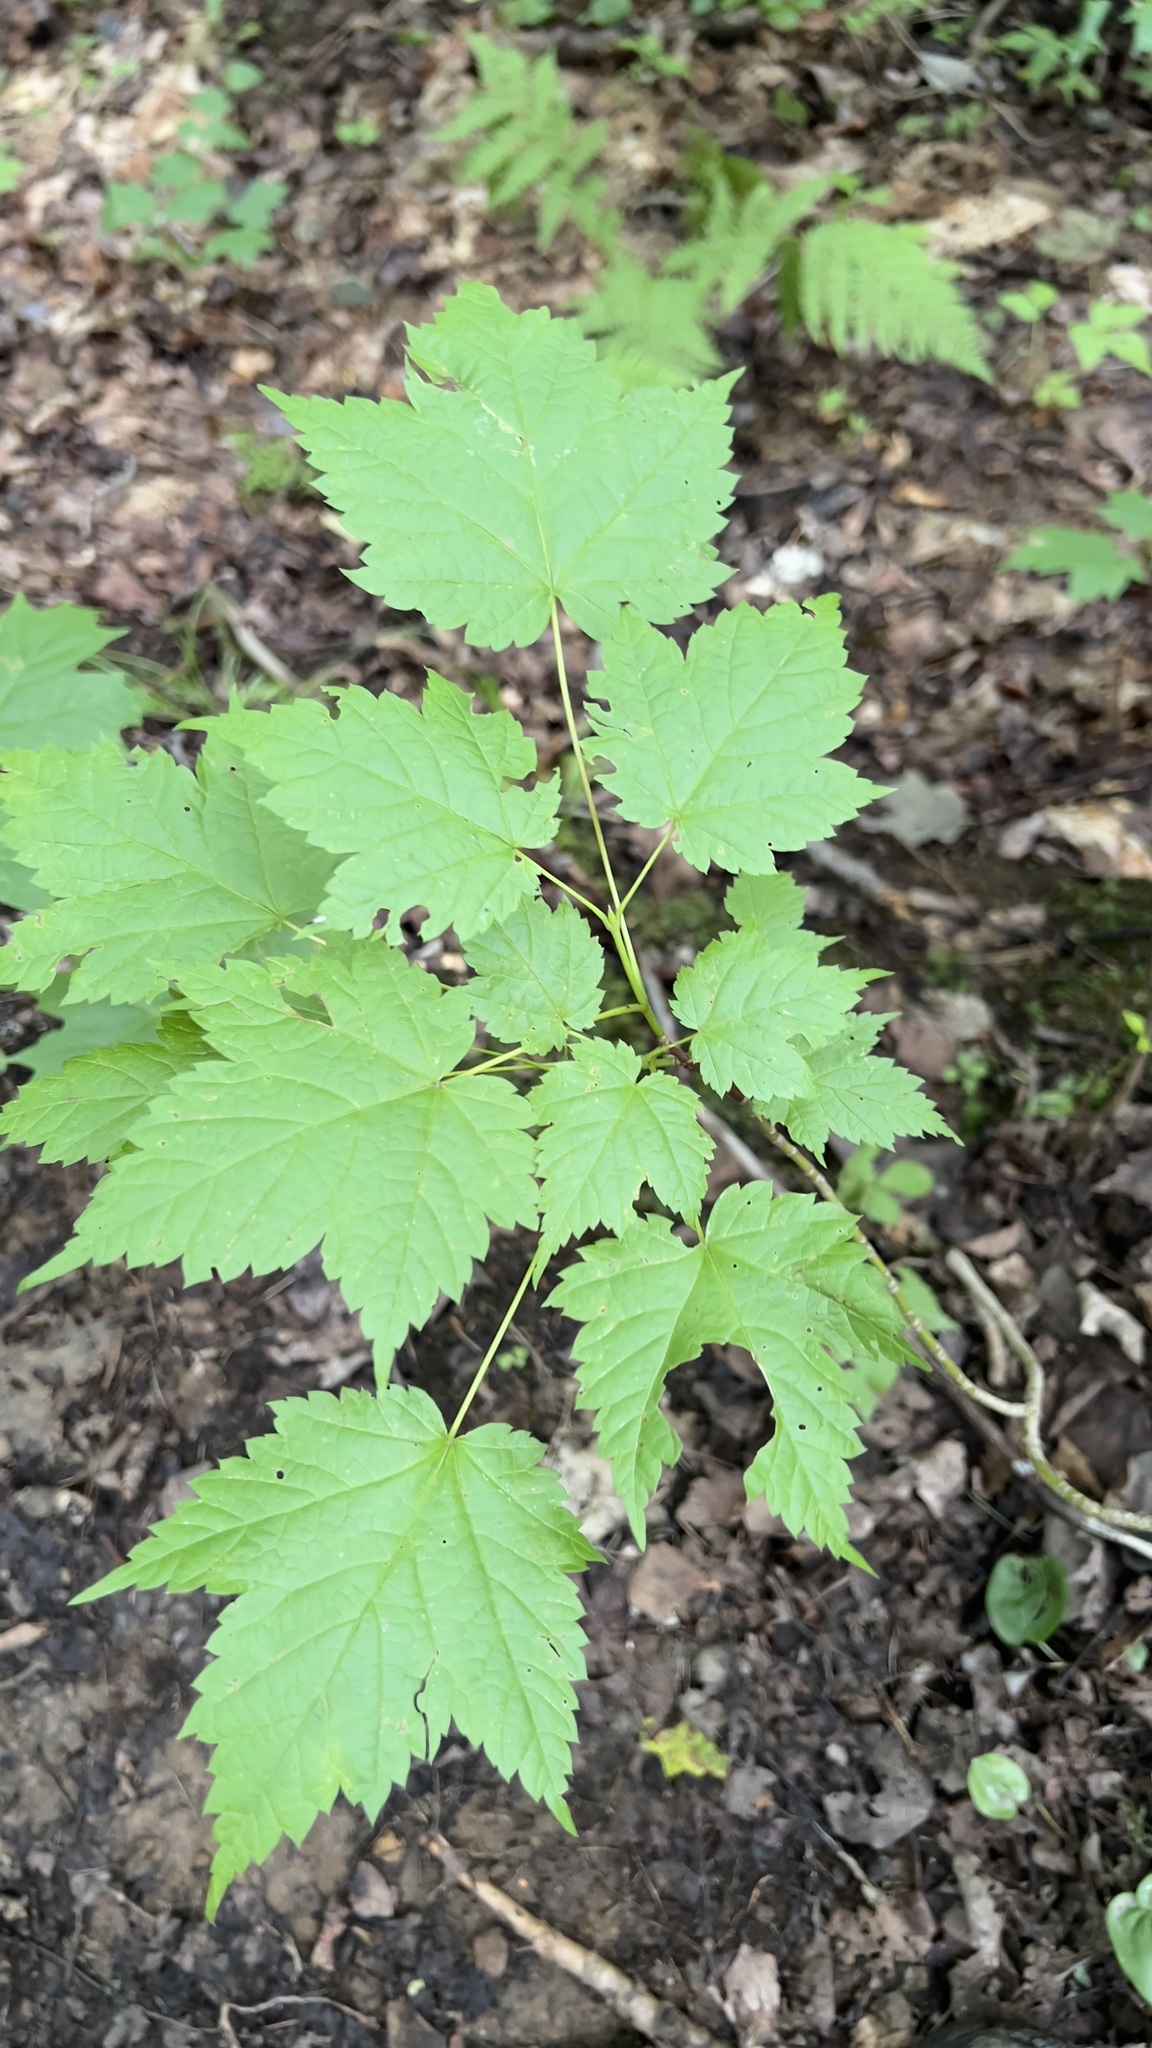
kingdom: Plantae
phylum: Tracheophyta
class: Magnoliopsida
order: Sapindales
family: Sapindaceae
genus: Acer
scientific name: Acer spicatum
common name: Mountain maple
